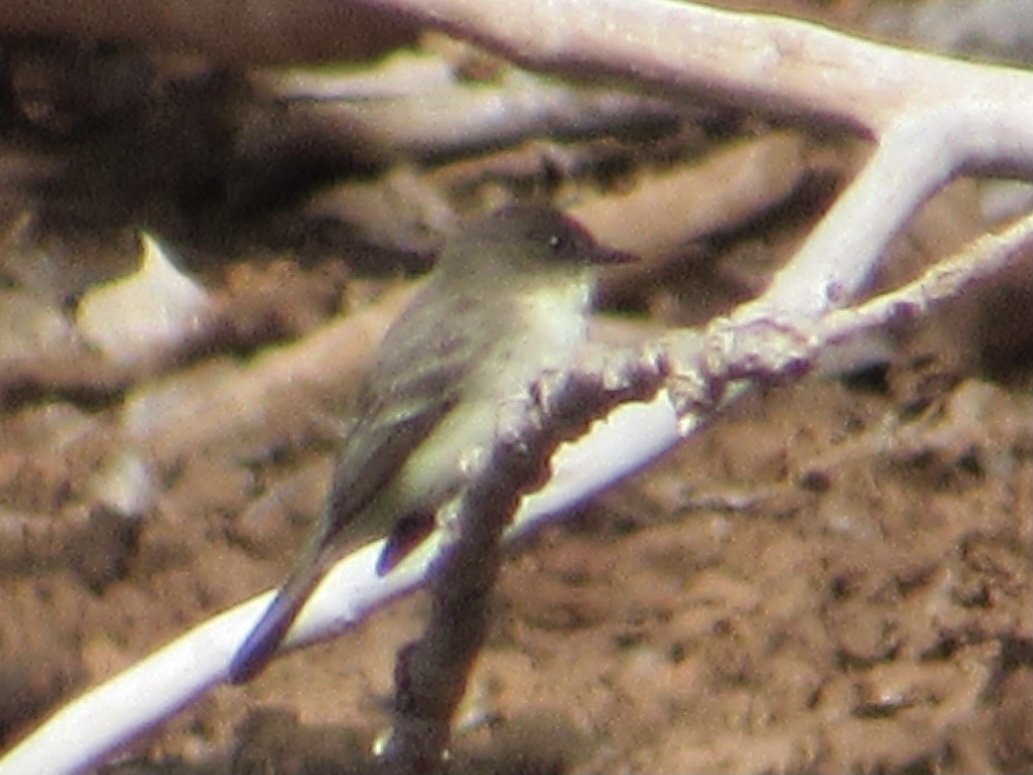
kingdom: Animalia
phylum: Chordata
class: Aves
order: Passeriformes
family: Tyrannidae
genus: Sayornis
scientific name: Sayornis phoebe
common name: Eastern phoebe
